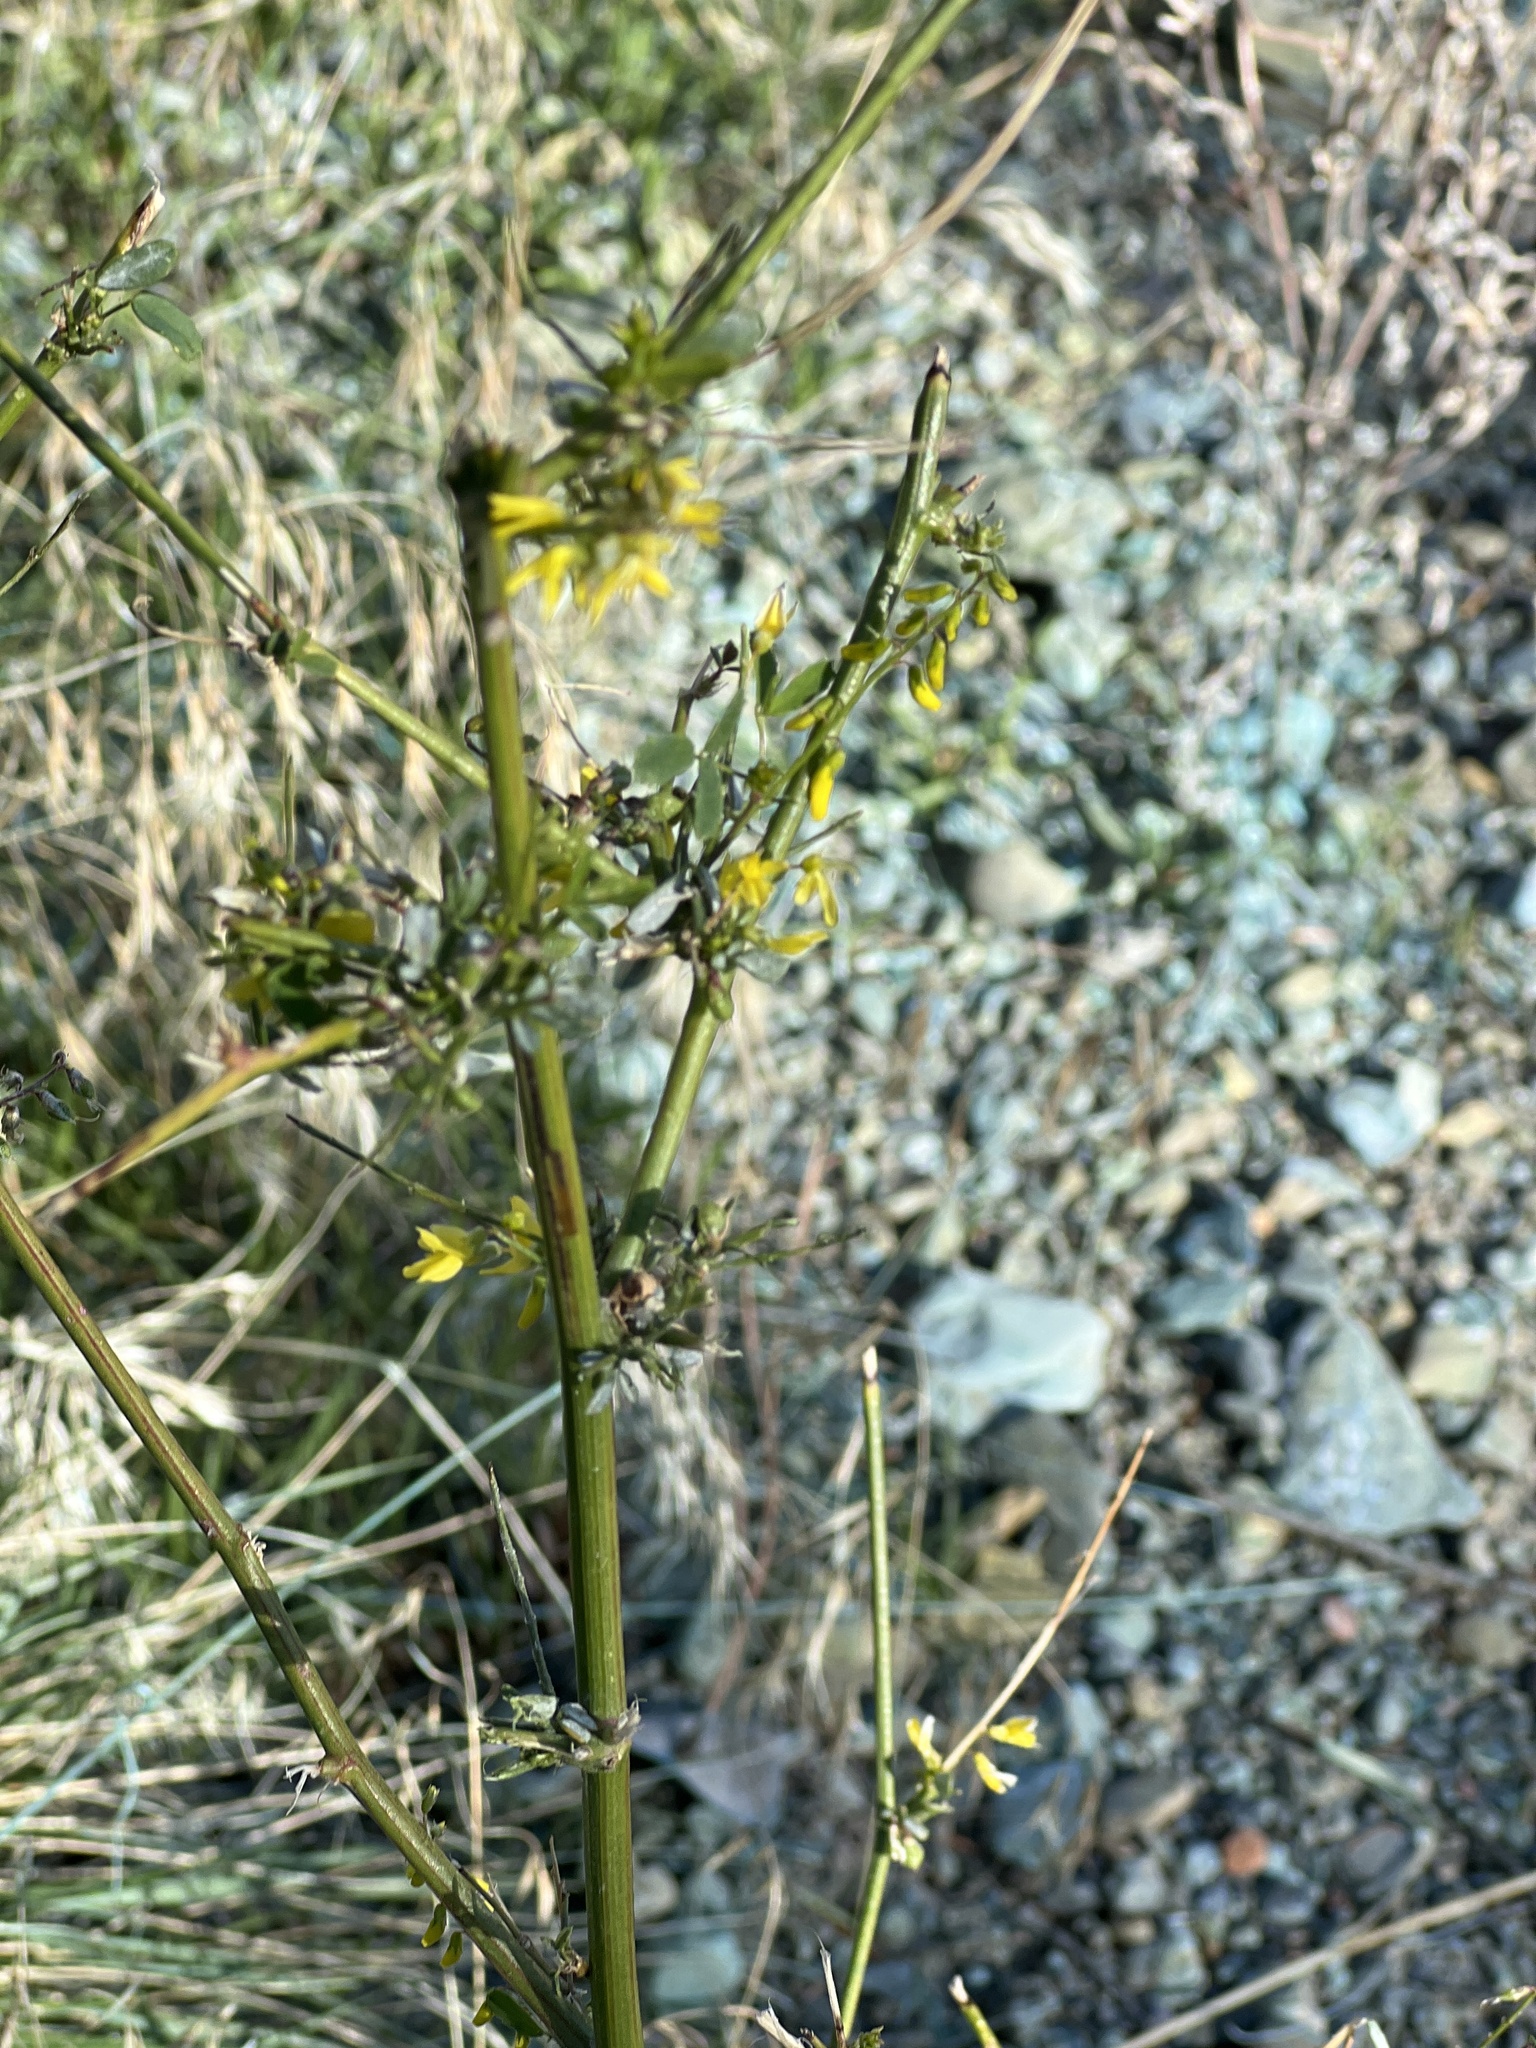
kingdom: Plantae
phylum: Tracheophyta
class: Magnoliopsida
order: Fabales
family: Fabaceae
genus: Melilotus
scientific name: Melilotus officinalis
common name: Sweetclover
